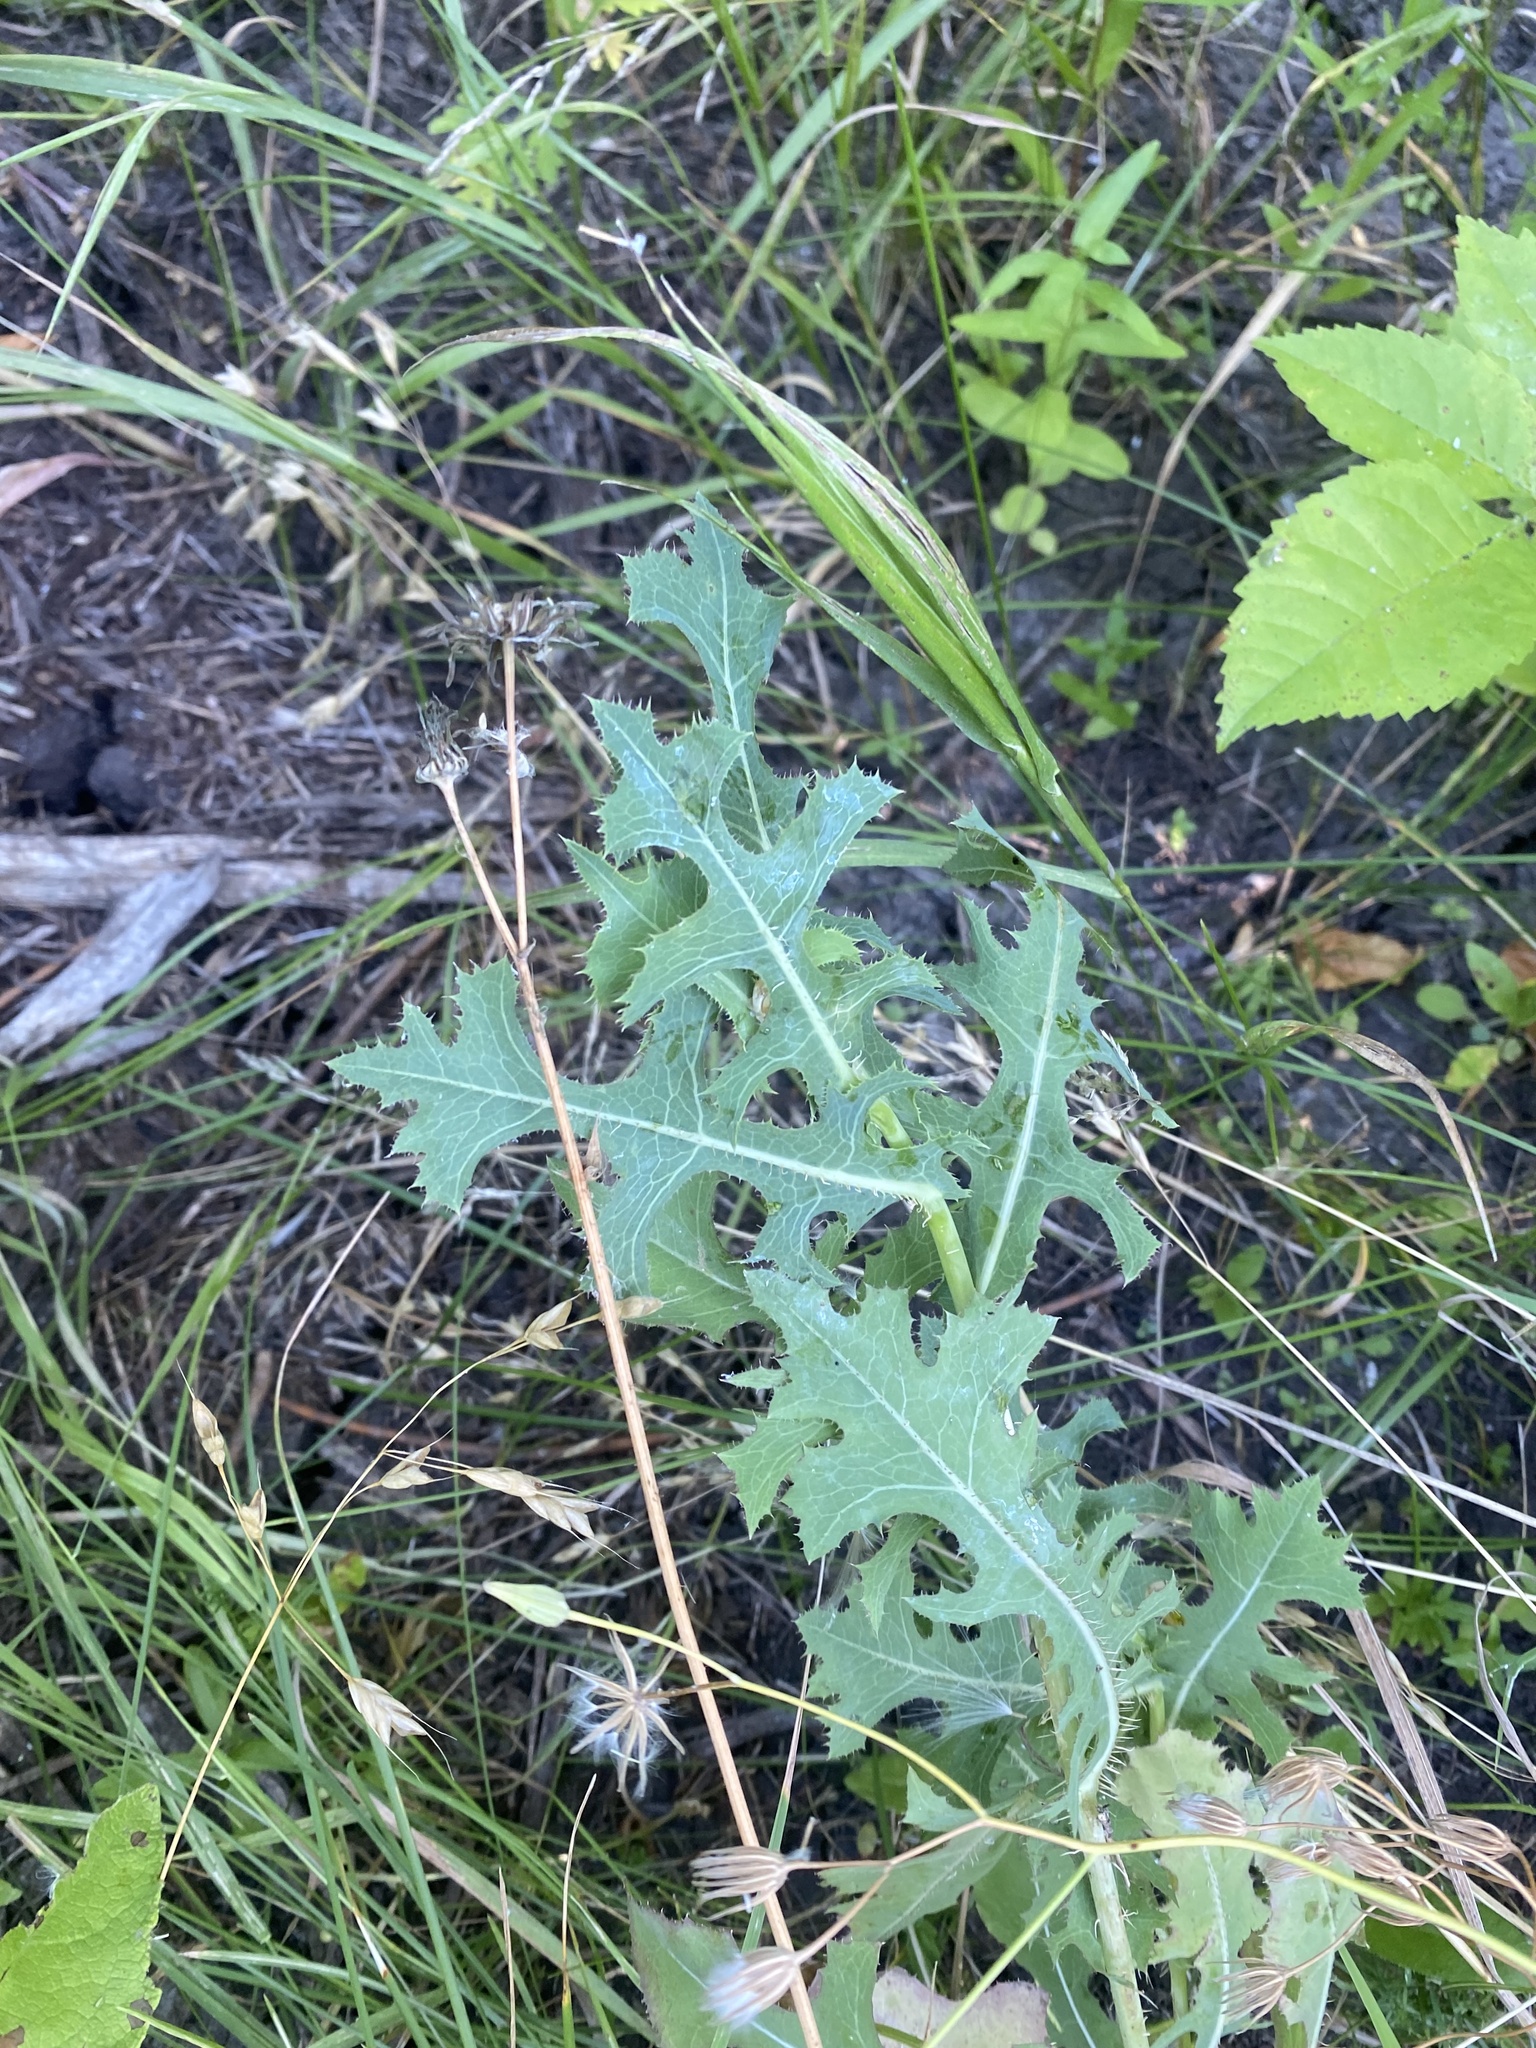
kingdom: Plantae
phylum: Tracheophyta
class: Magnoliopsida
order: Asterales
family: Asteraceae
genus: Lactuca
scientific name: Lactuca serriola
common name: Prickly lettuce
